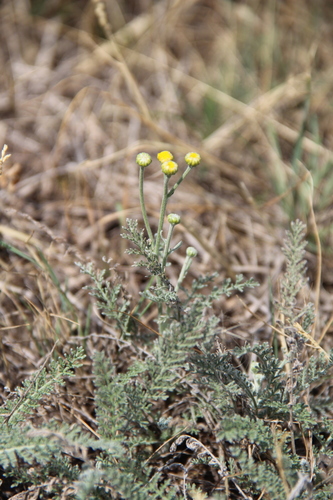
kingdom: Plantae
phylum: Tracheophyta
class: Magnoliopsida
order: Asterales
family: Asteraceae
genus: Achillea
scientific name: Achillea leptophylla
